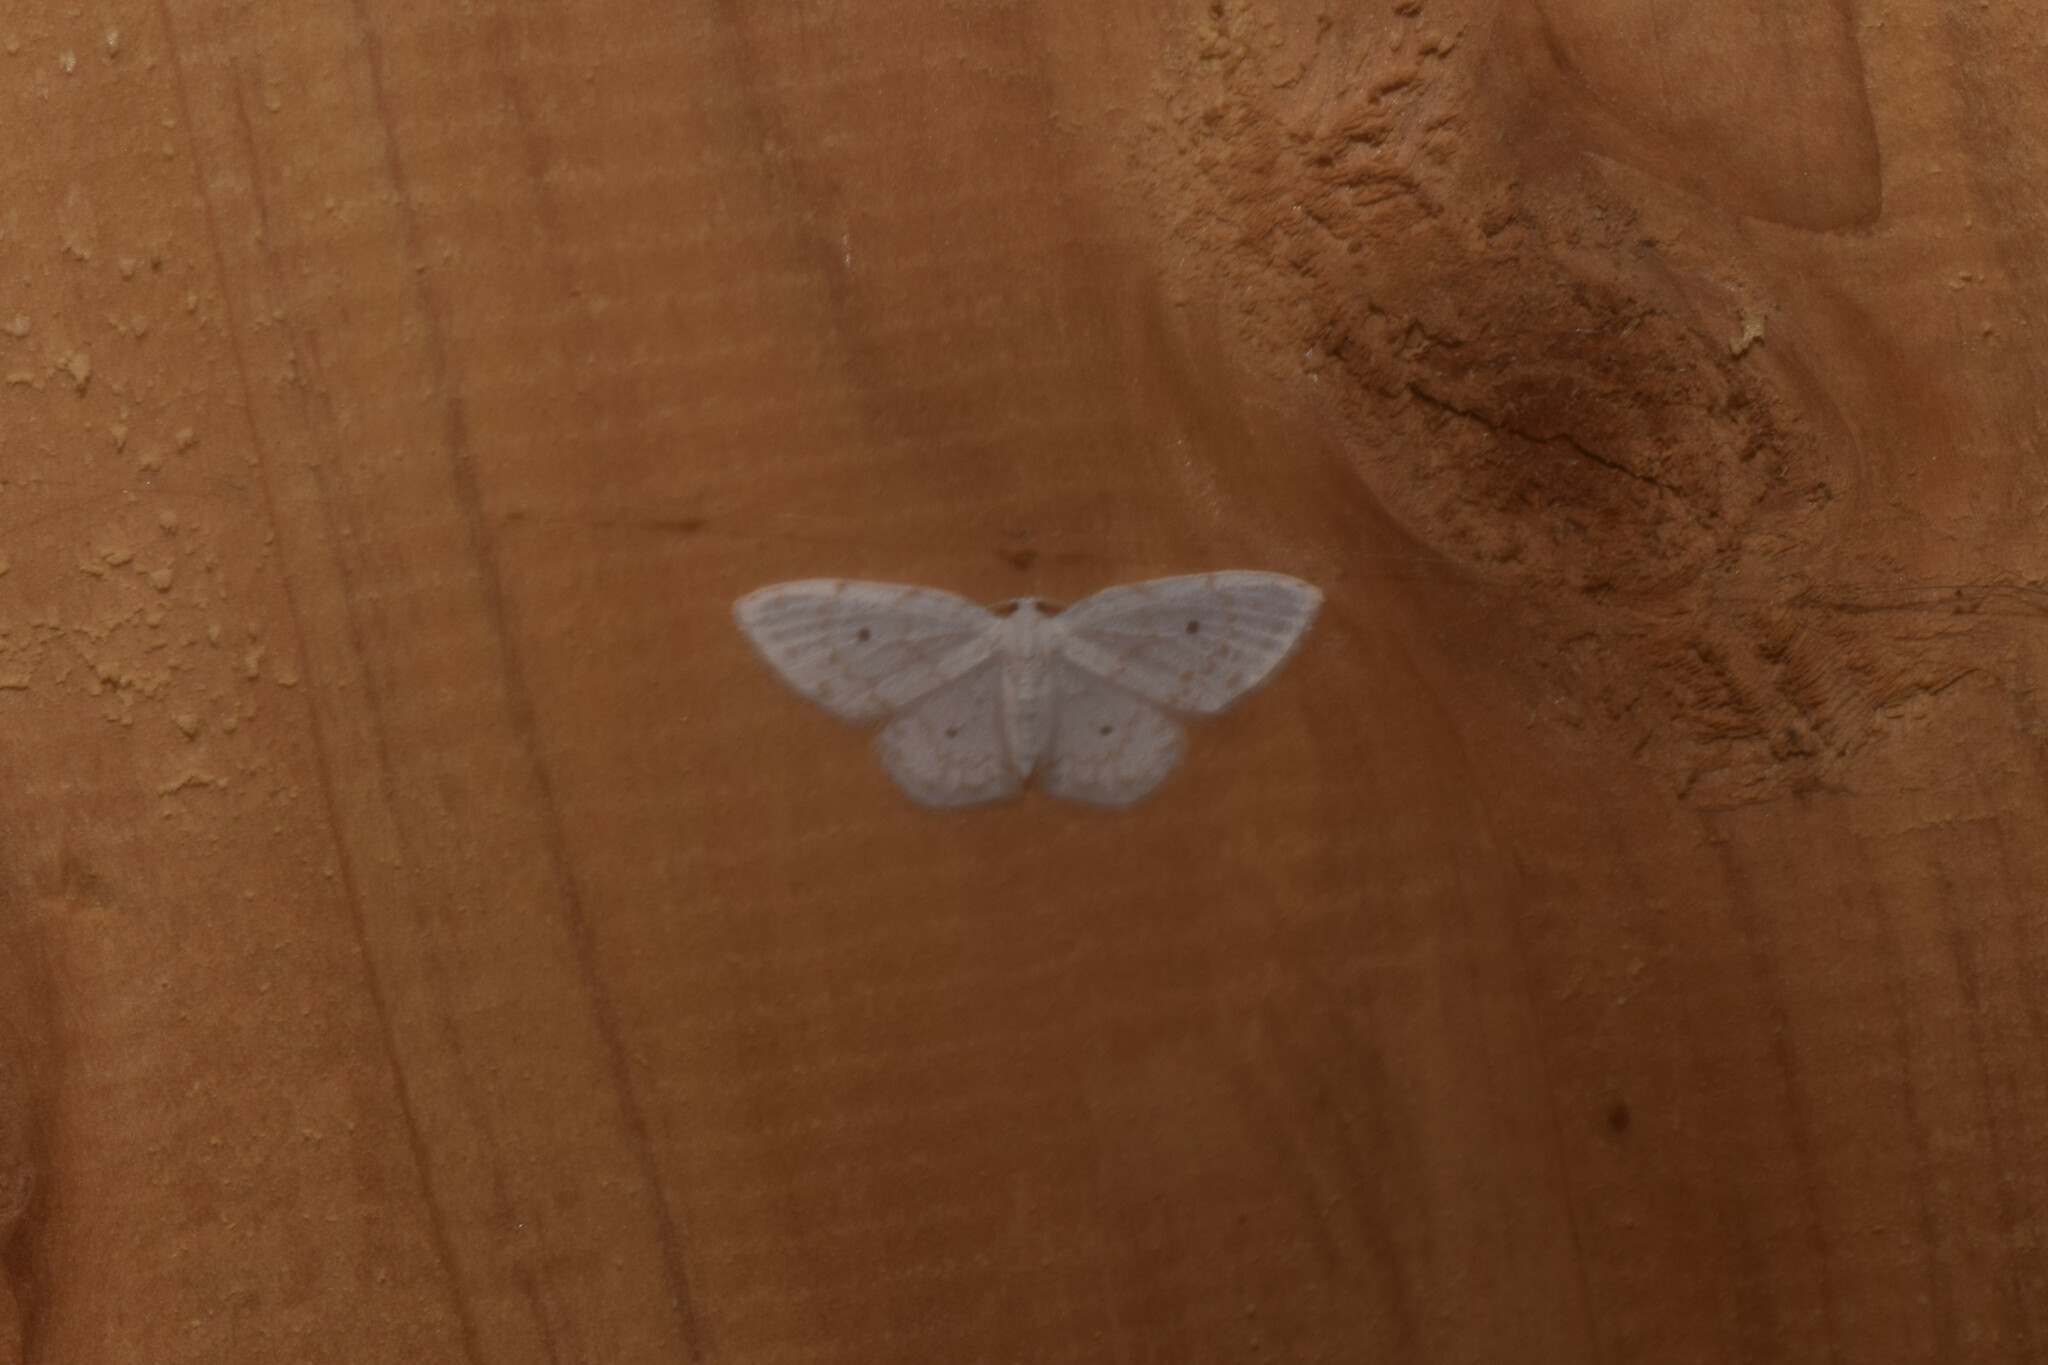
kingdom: Animalia
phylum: Arthropoda
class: Insecta
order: Lepidoptera
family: Drepanidae
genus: Dipriodonta
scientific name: Dipriodonta minima
